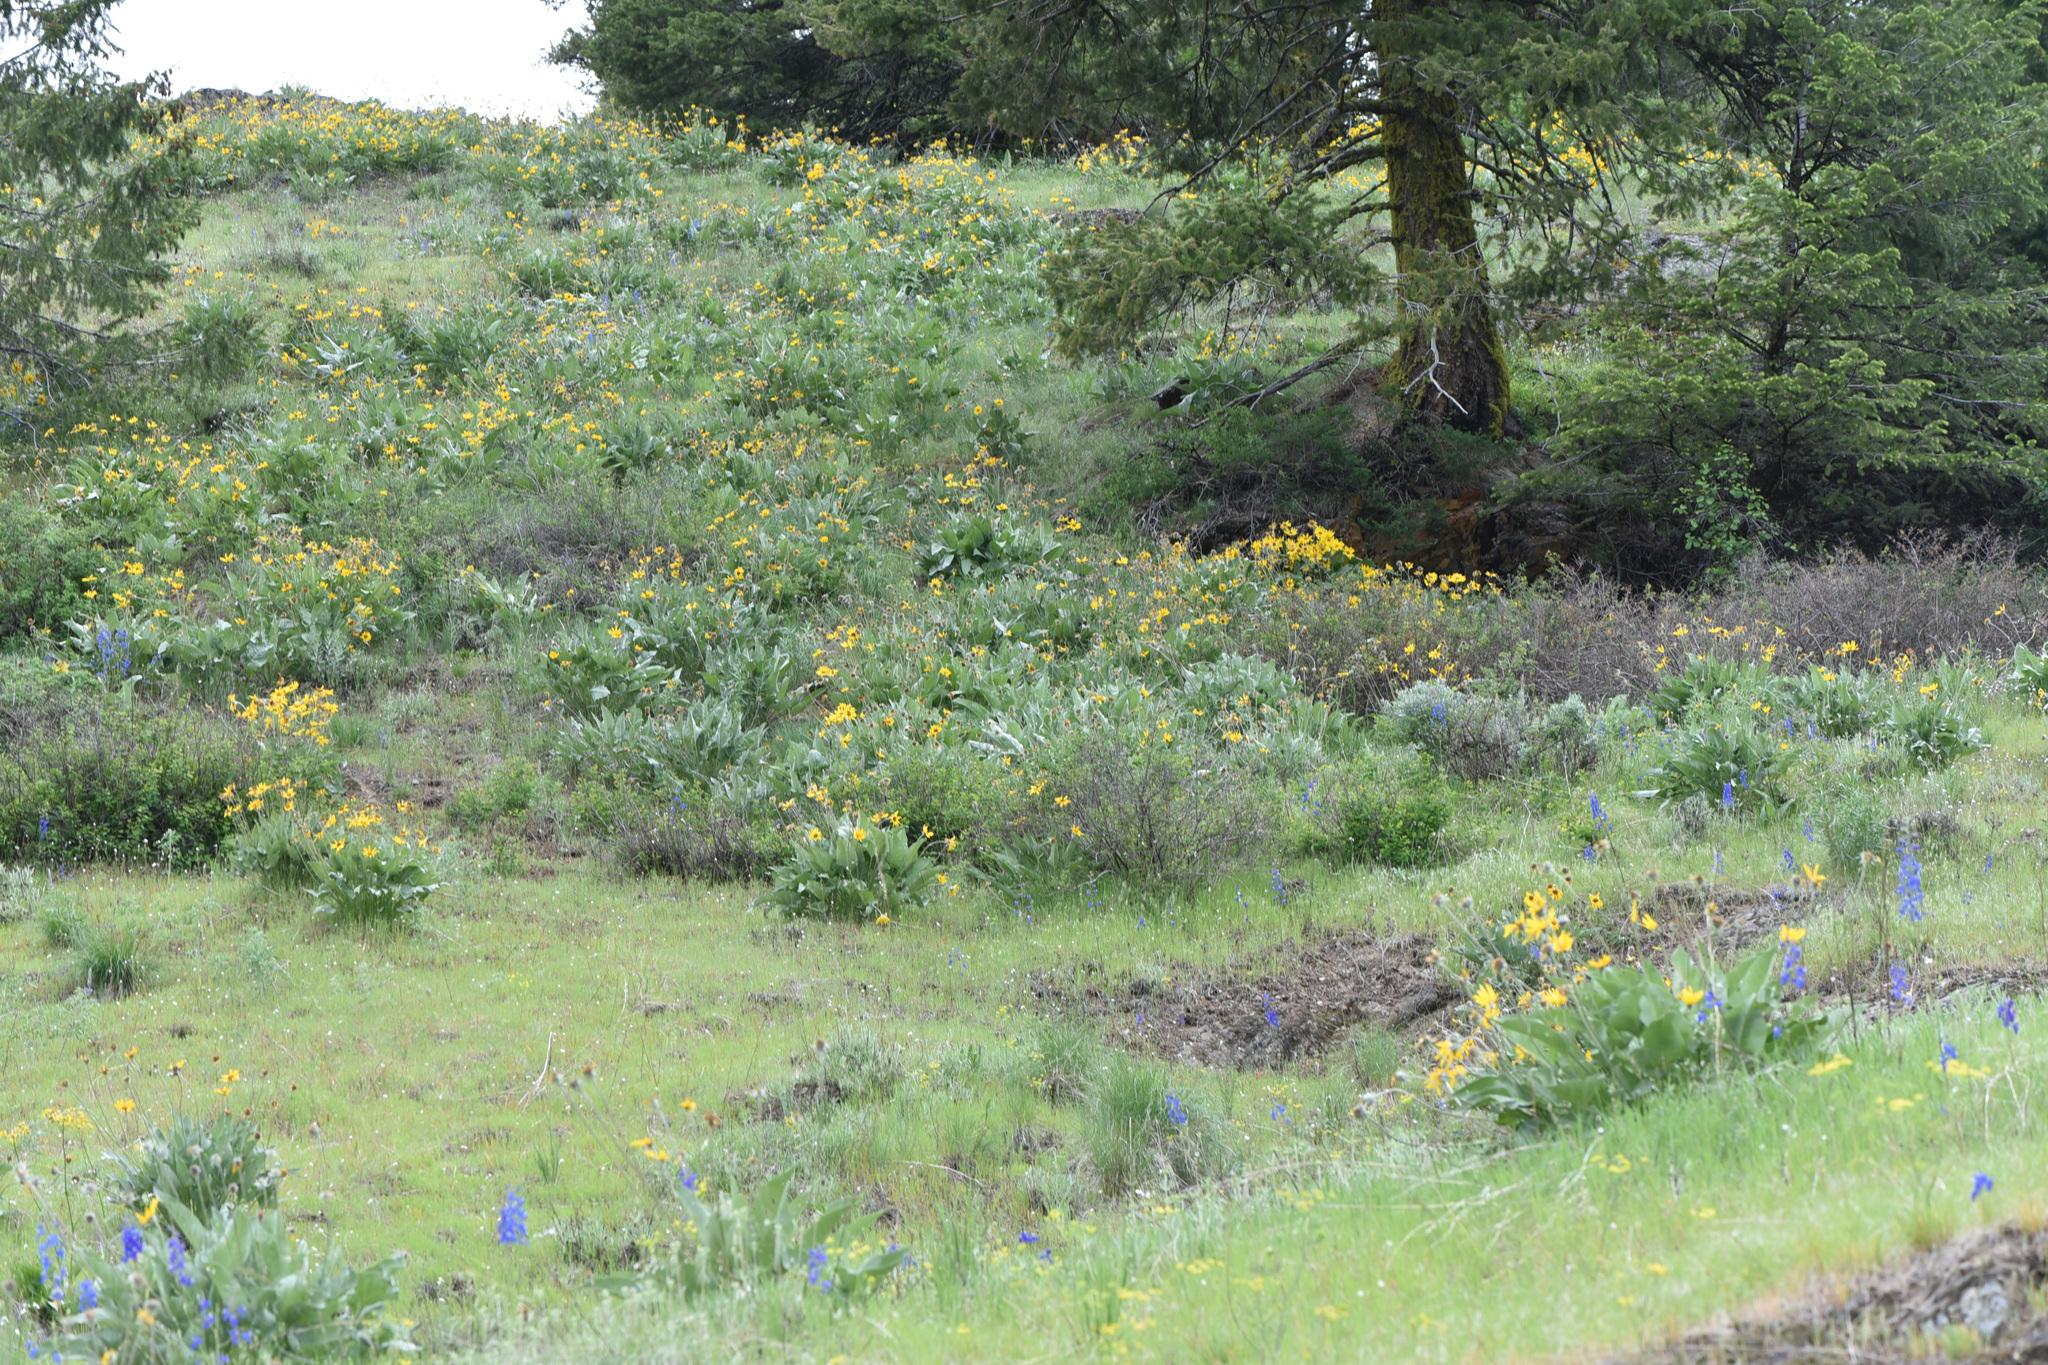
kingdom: Plantae
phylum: Tracheophyta
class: Magnoliopsida
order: Asterales
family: Asteraceae
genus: Wyethia
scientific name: Wyethia sagittata
